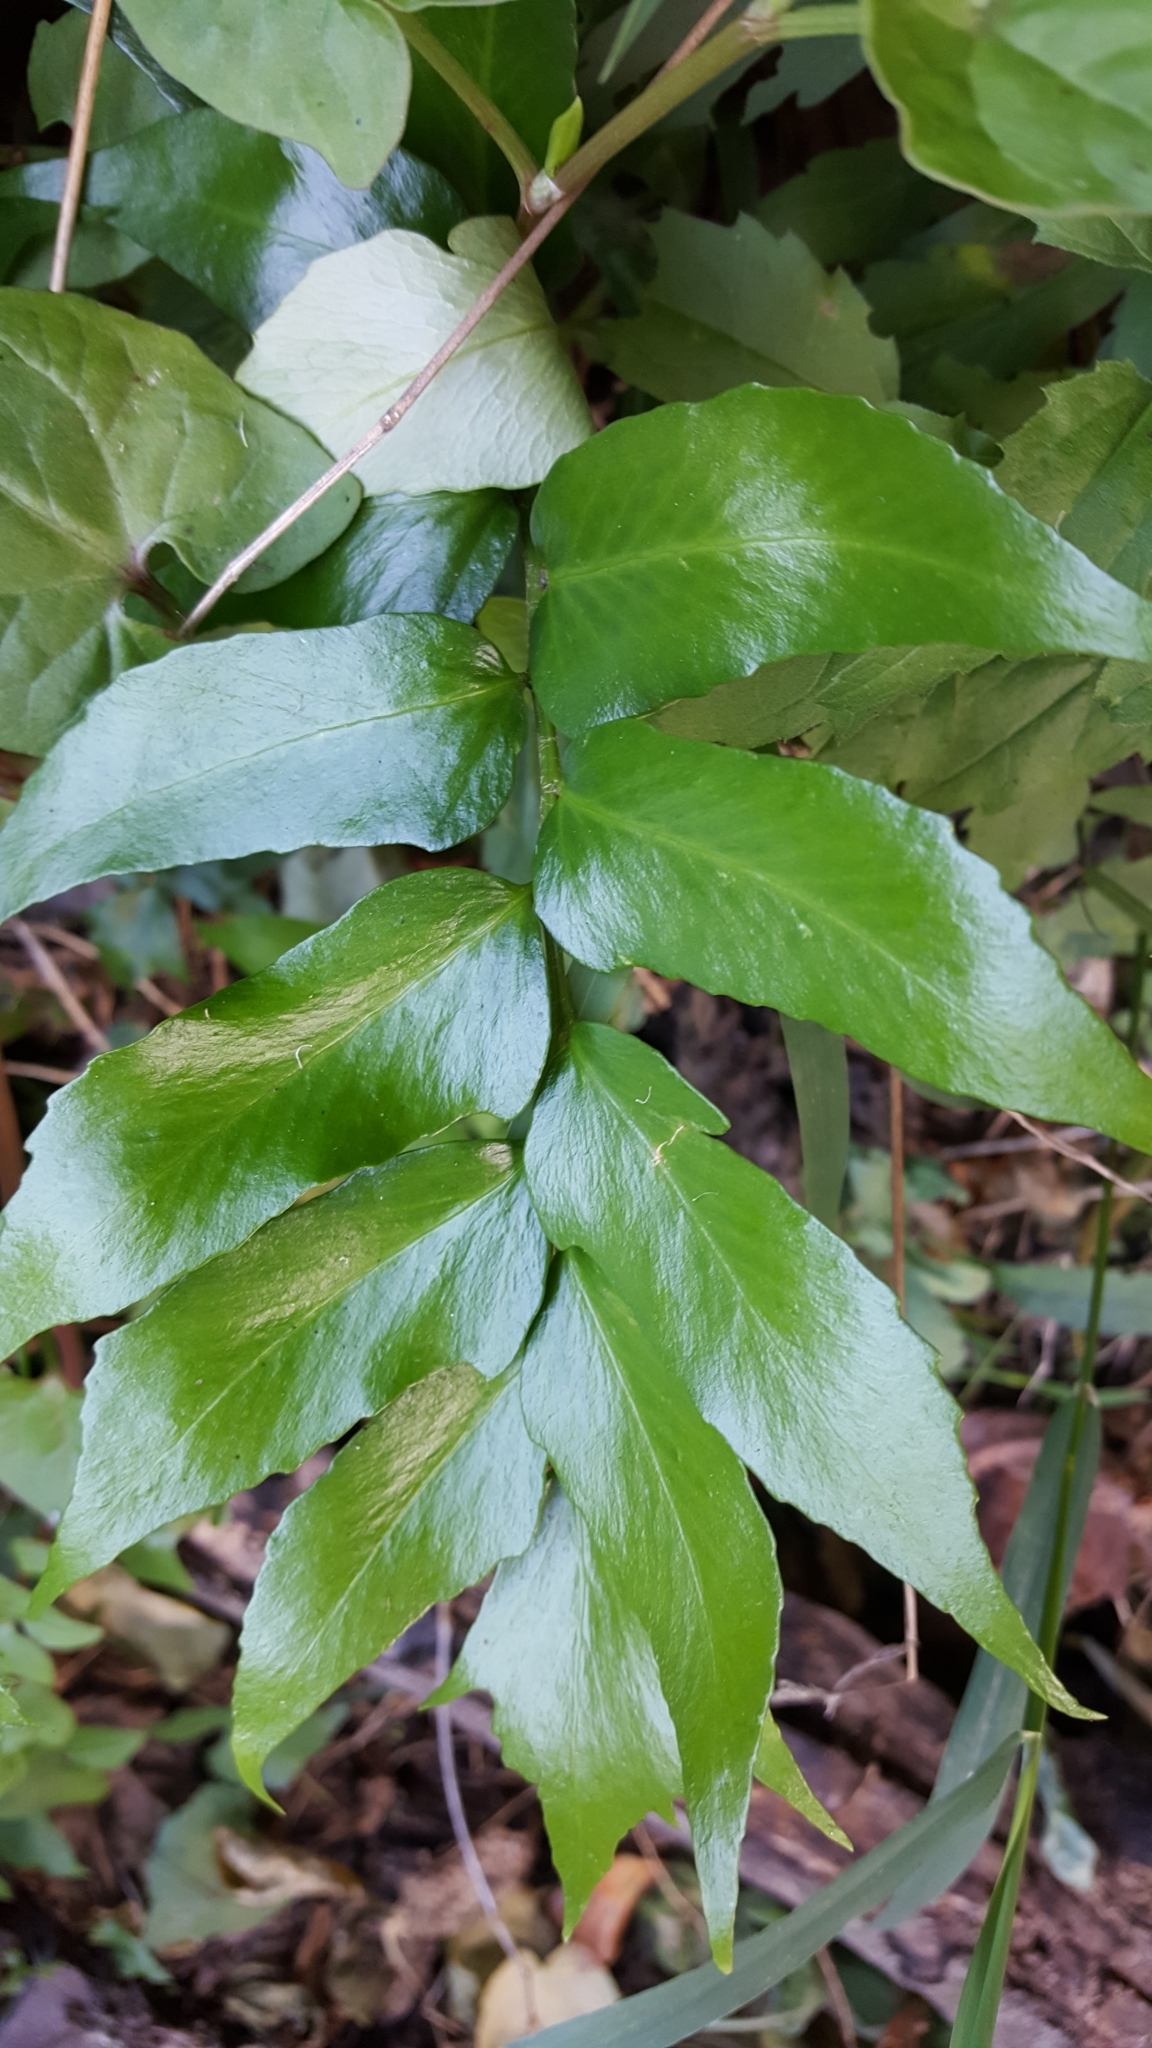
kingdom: Plantae
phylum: Tracheophyta
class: Polypodiopsida
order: Polypodiales
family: Dryopteridaceae
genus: Cyrtomium
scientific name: Cyrtomium falcatum
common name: House holly-fern
